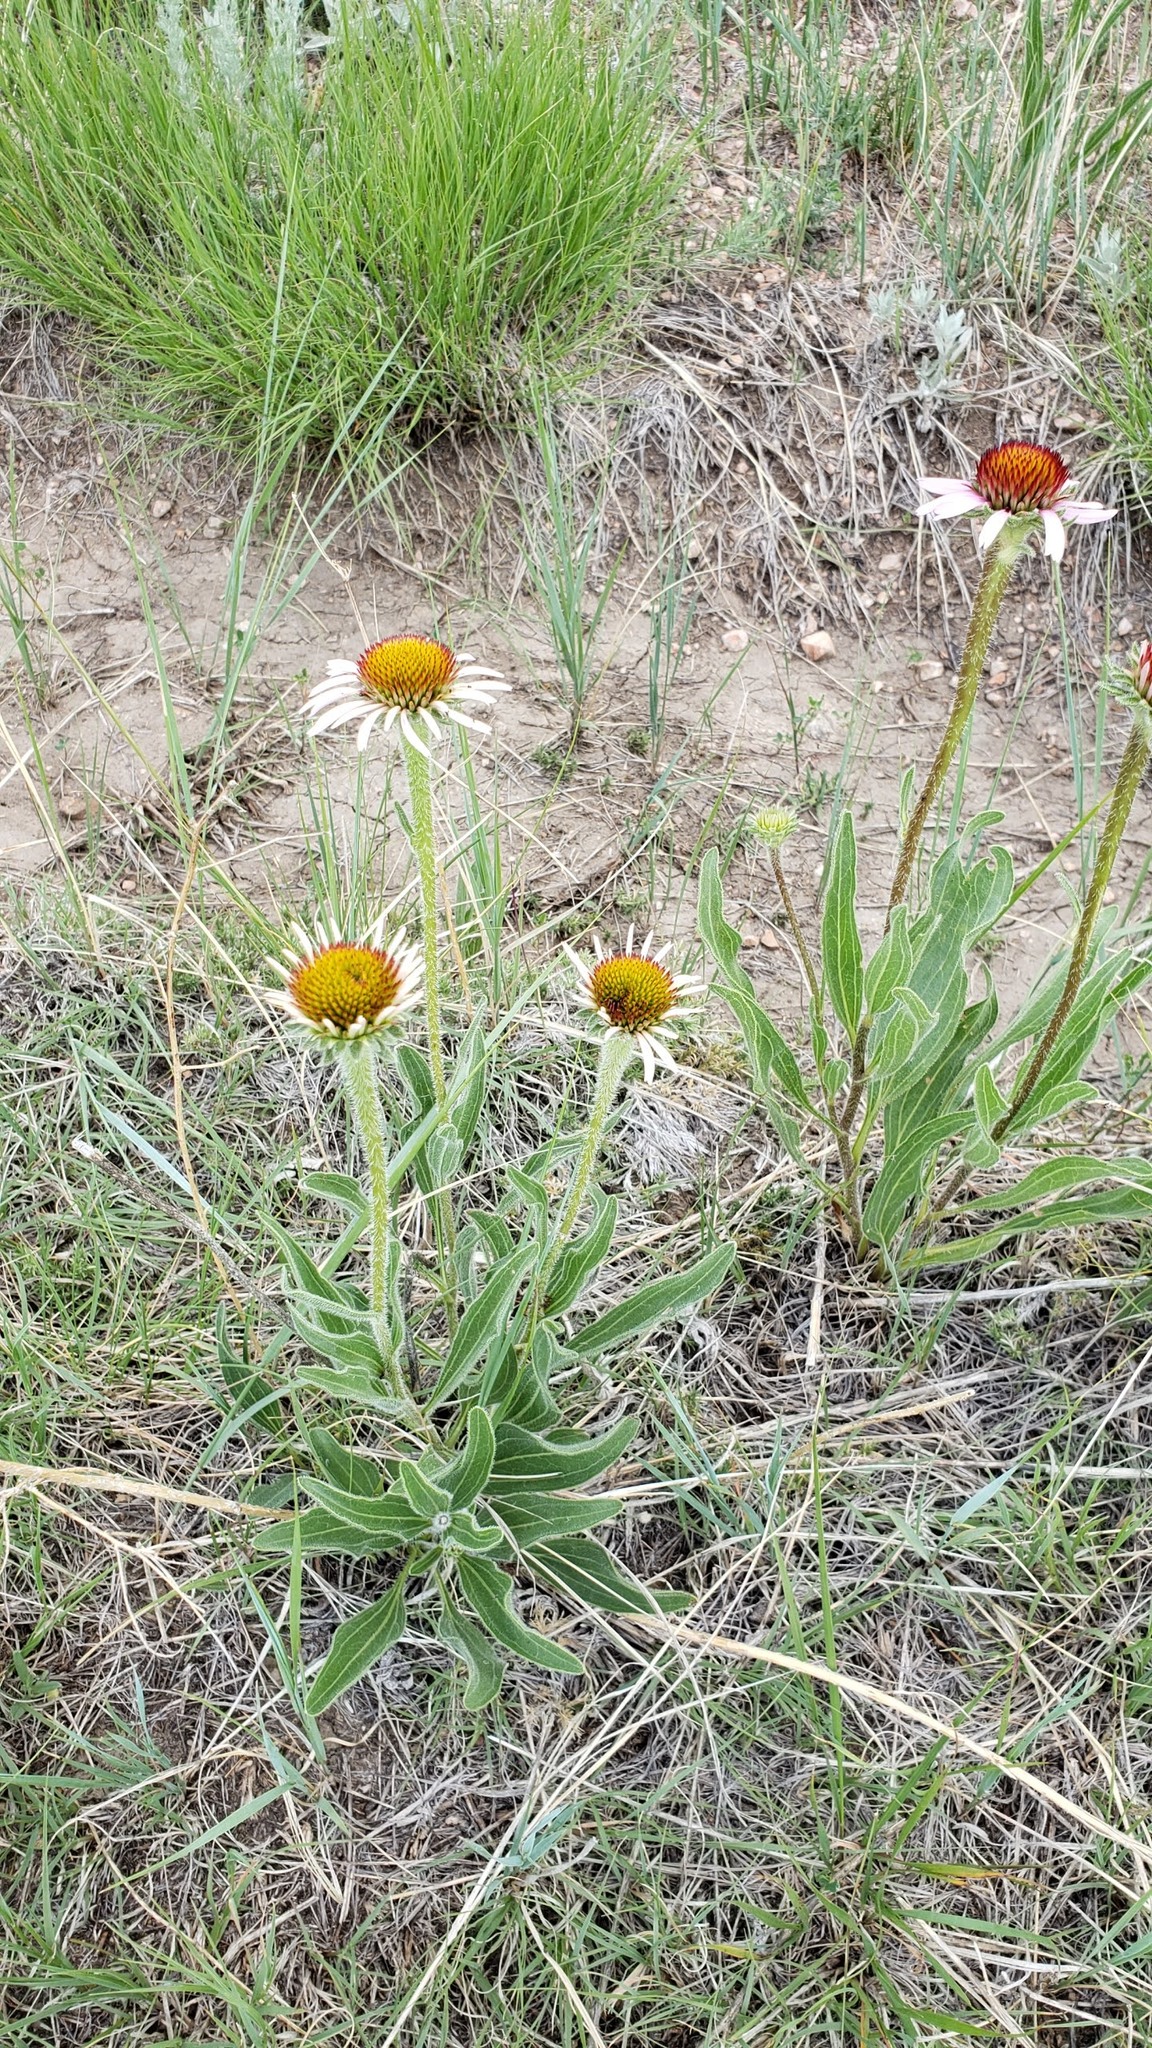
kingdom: Plantae
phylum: Tracheophyta
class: Magnoliopsida
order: Asterales
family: Asteraceae
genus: Echinacea
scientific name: Echinacea angustifolia
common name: Black-sampson echinacea
